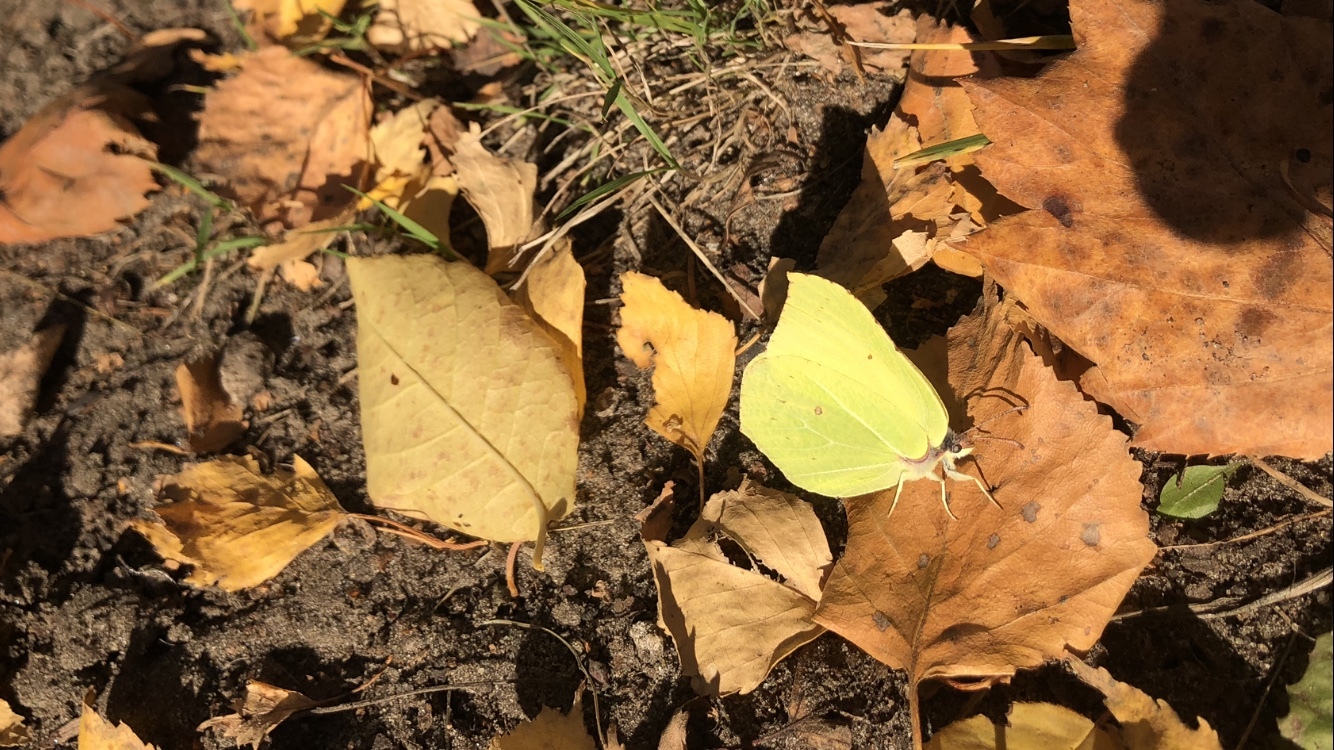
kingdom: Animalia
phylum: Arthropoda
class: Insecta
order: Lepidoptera
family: Pieridae
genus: Gonepteryx
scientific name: Gonepteryx rhamni
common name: Brimstone
